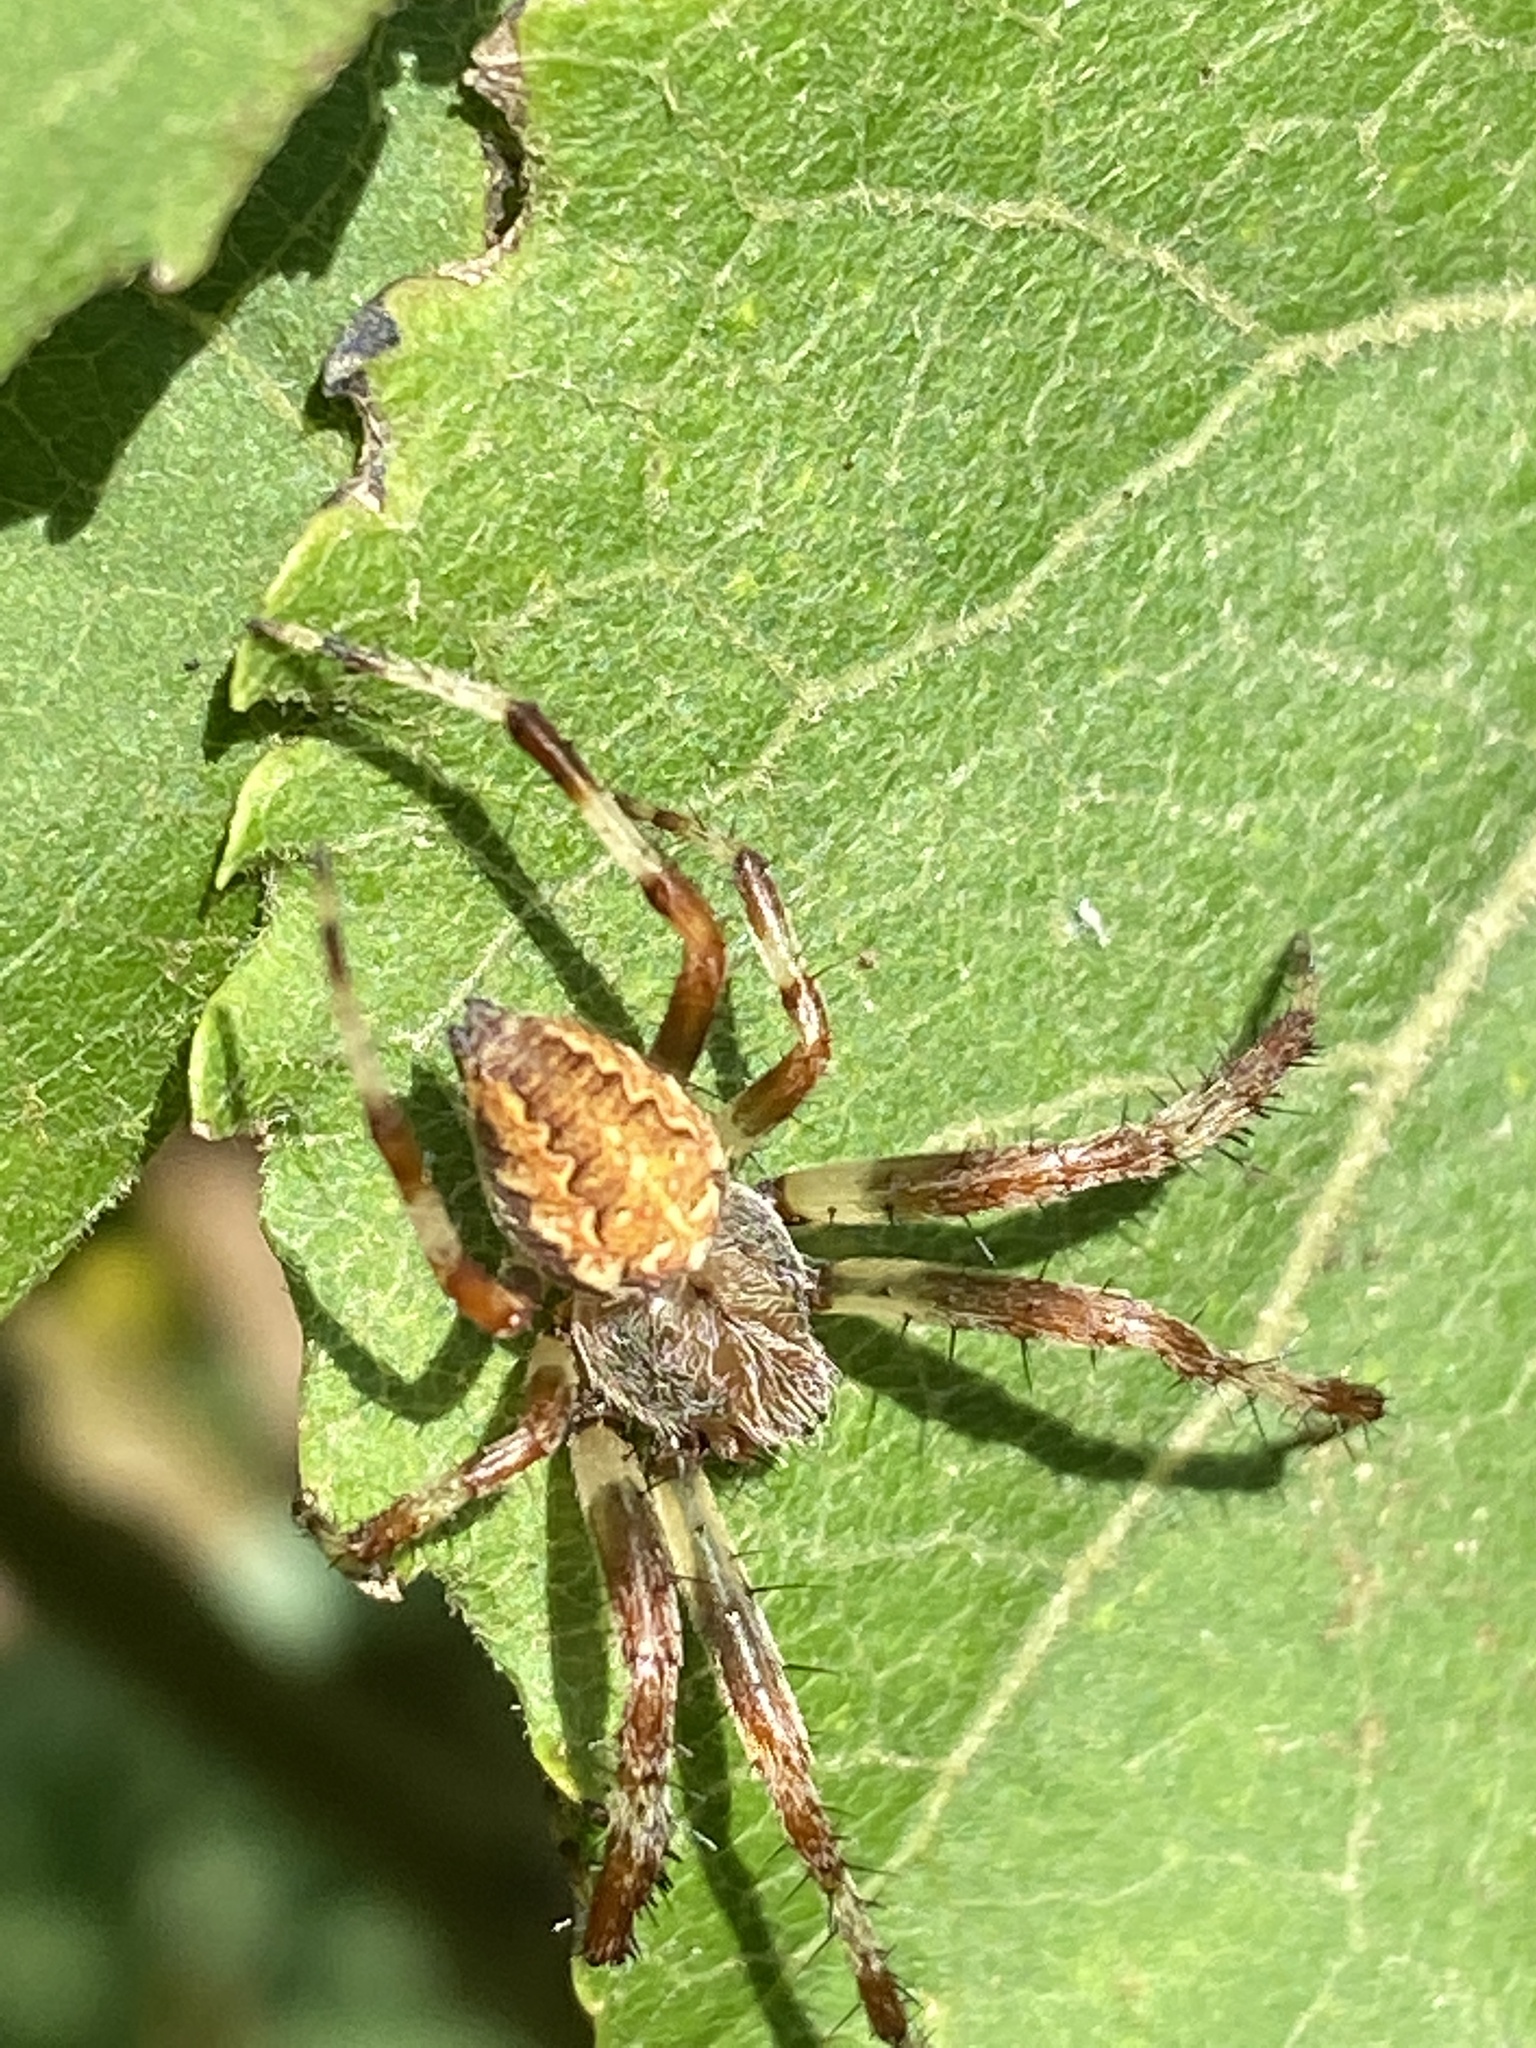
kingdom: Animalia
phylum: Arthropoda
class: Arachnida
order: Araneae
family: Araneidae
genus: Araneus
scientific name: Araneus diadematus
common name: Cross orbweaver
